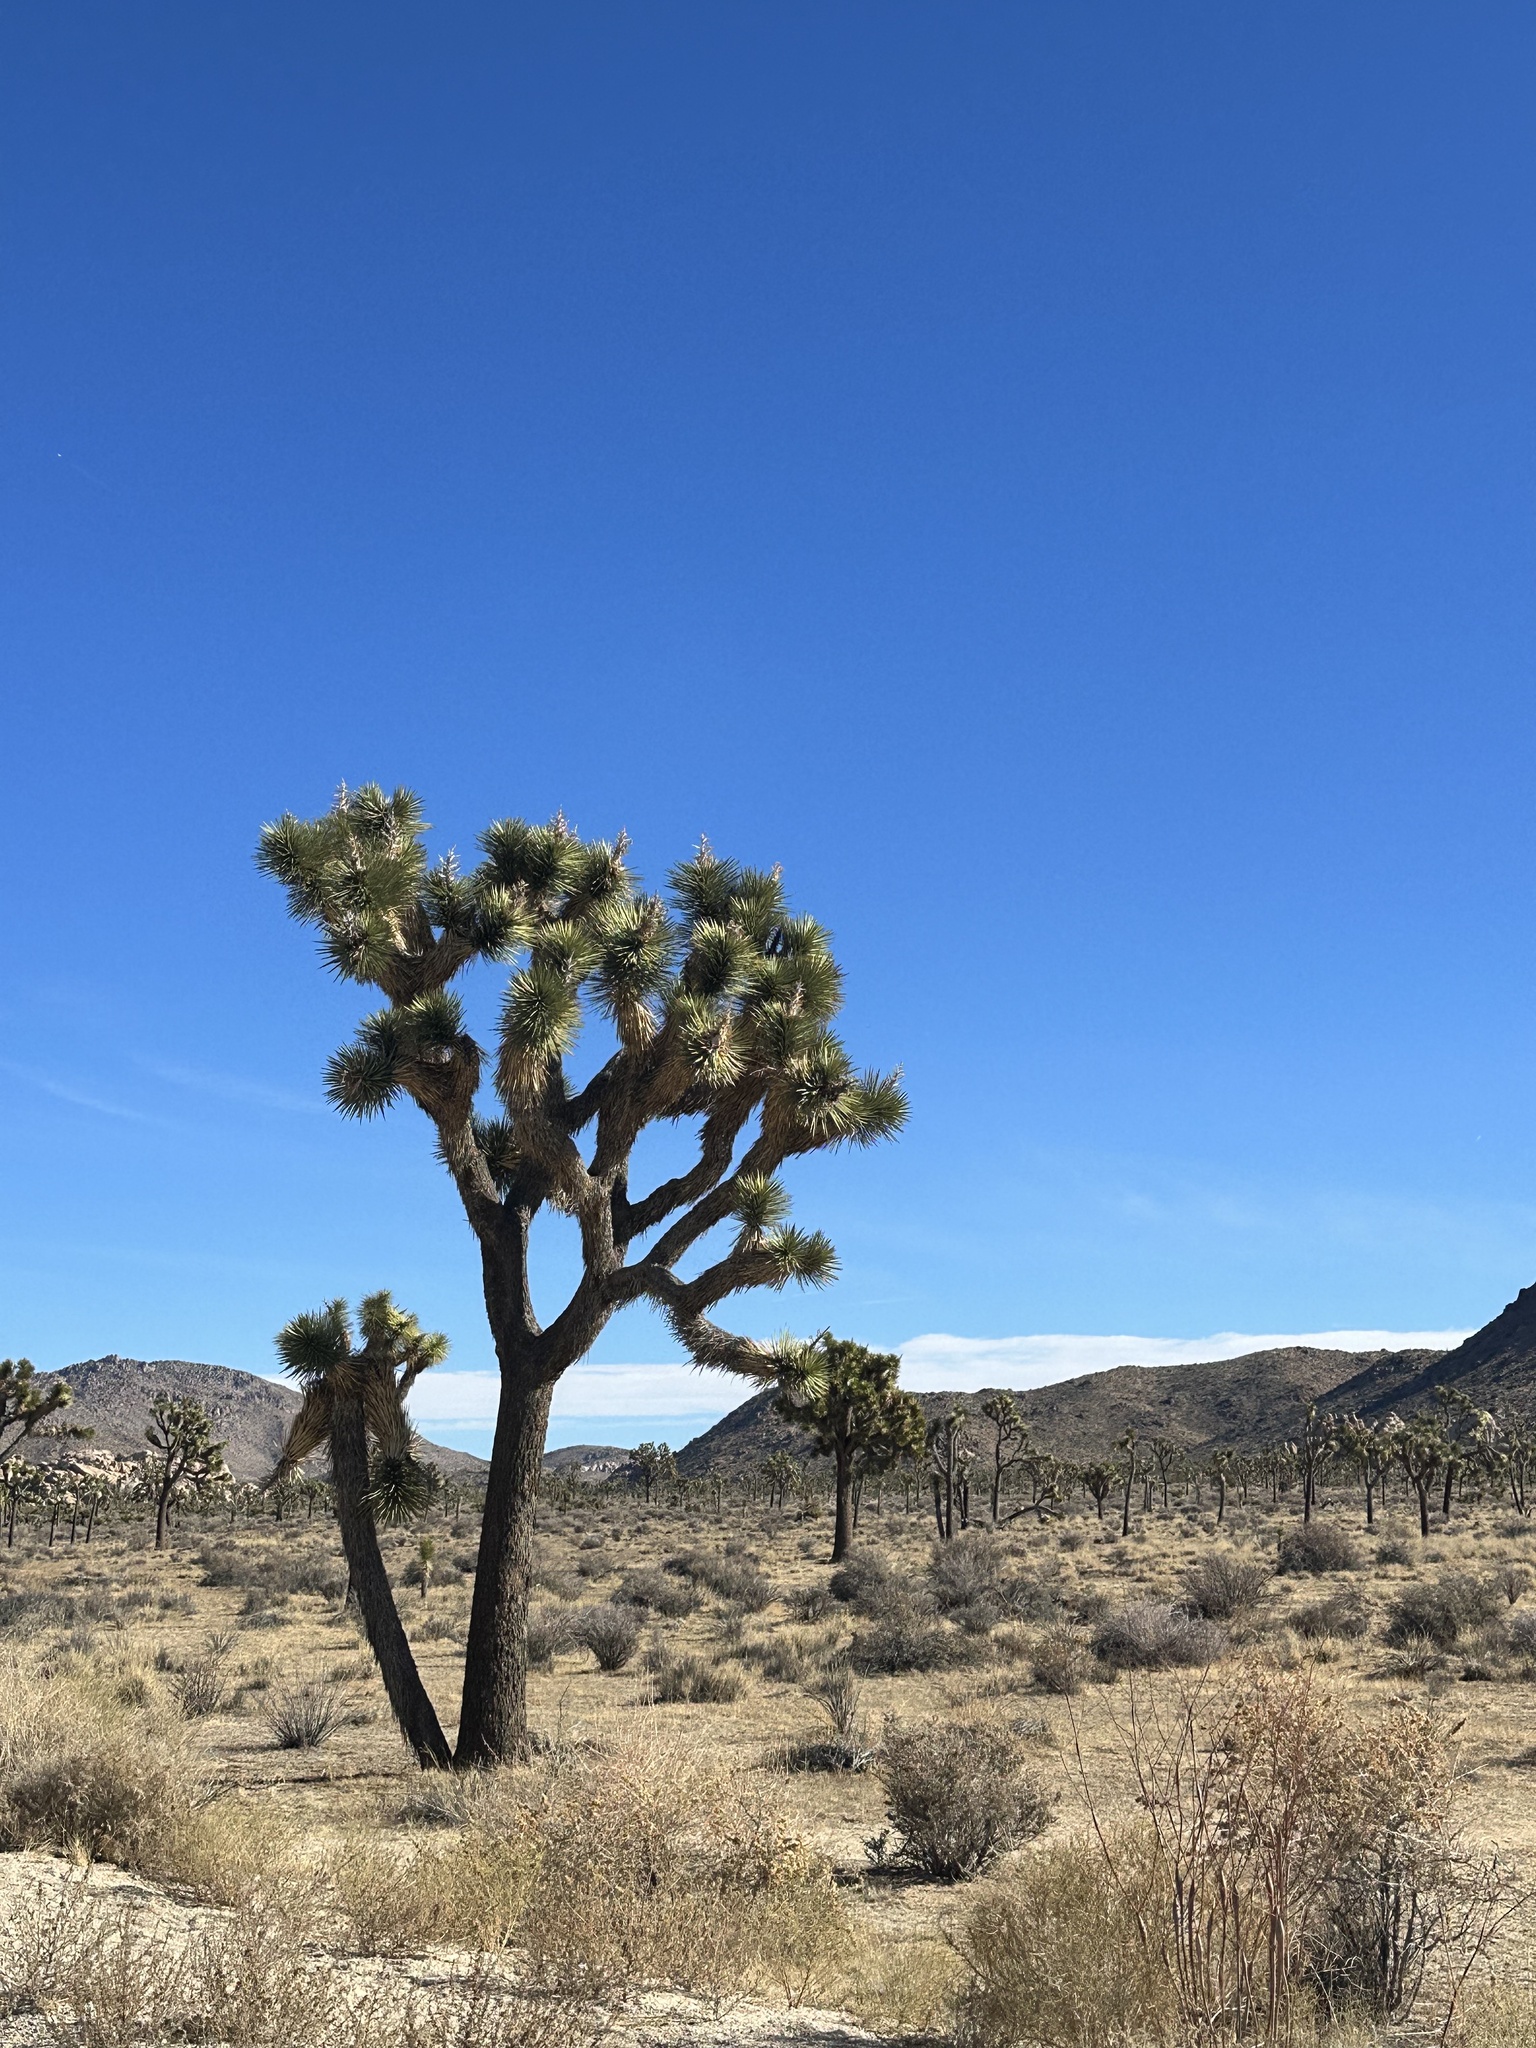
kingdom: Plantae
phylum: Tracheophyta
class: Liliopsida
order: Asparagales
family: Asparagaceae
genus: Yucca
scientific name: Yucca brevifolia
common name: Joshua tree
